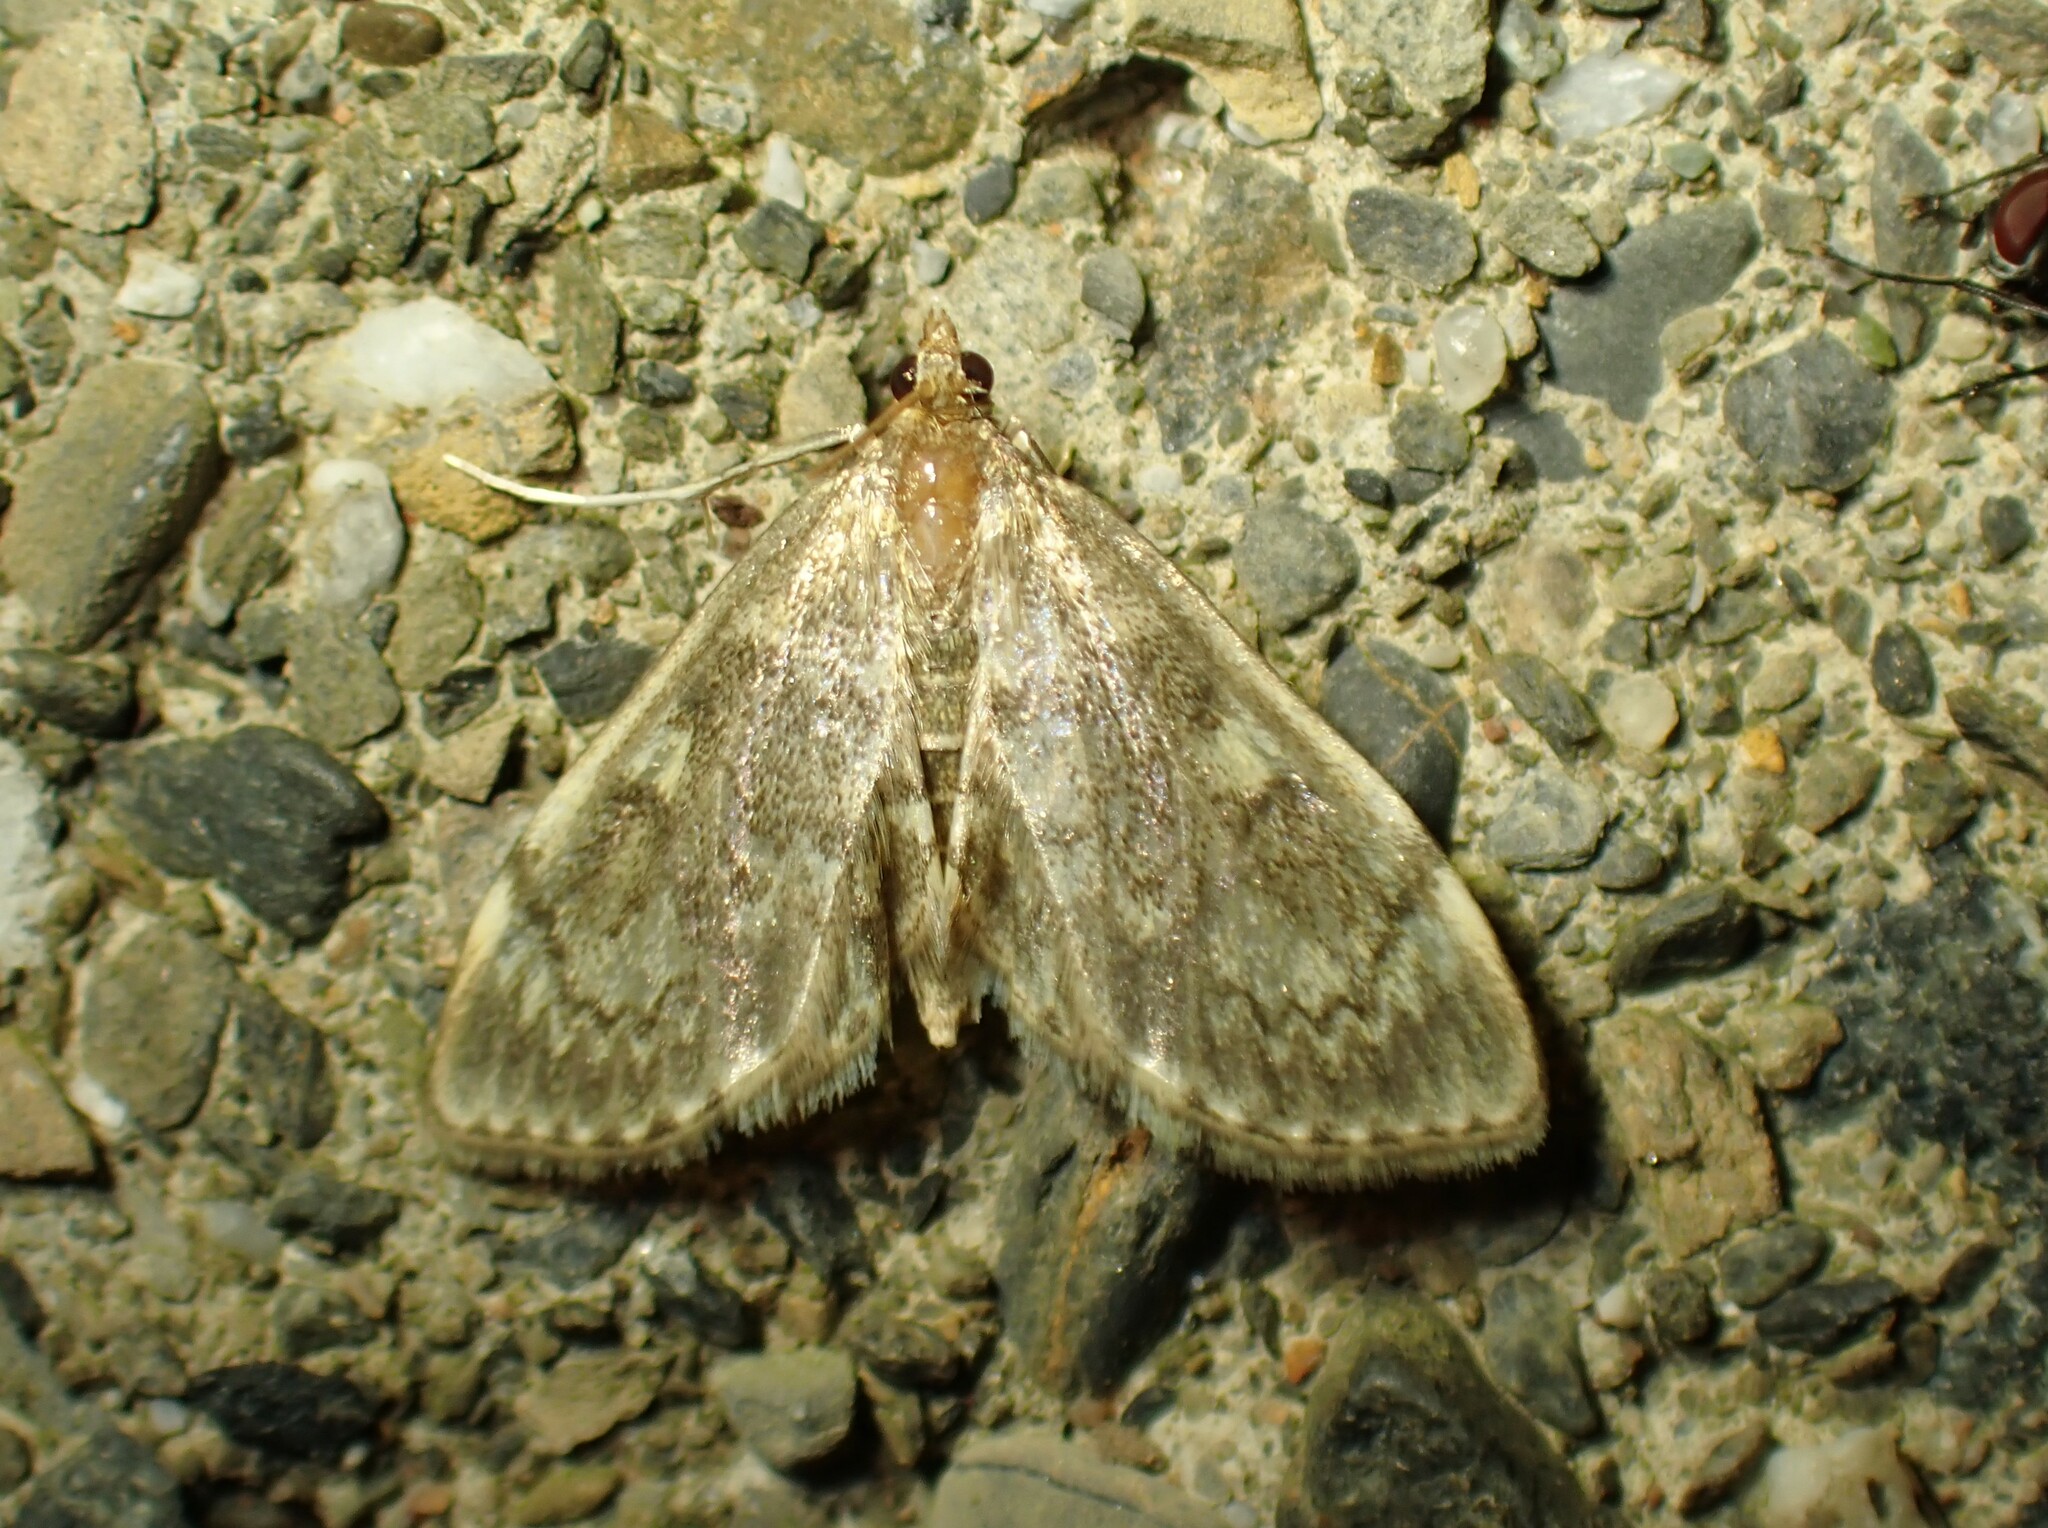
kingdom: Animalia
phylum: Arthropoda
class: Insecta
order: Lepidoptera
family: Crambidae
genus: Anania
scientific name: Anania
